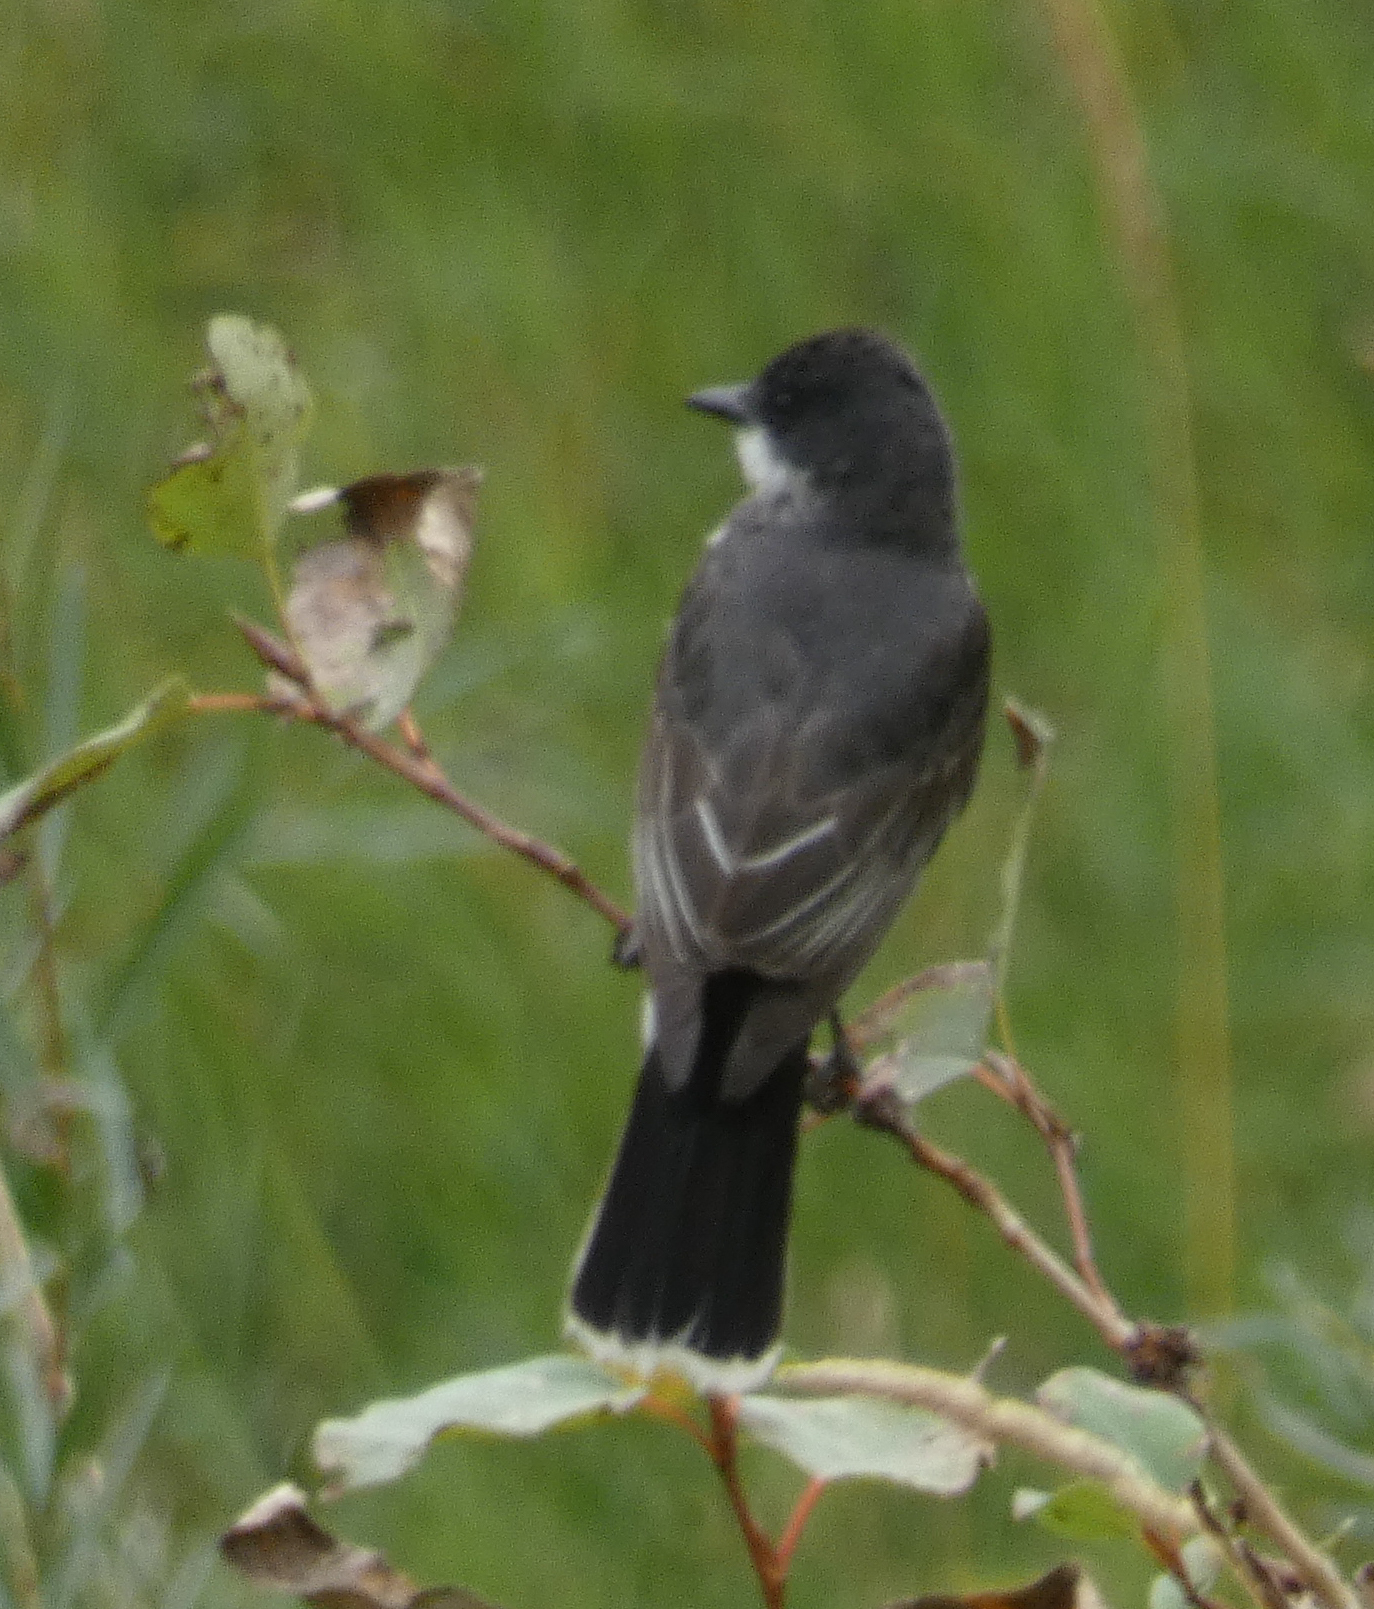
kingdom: Animalia
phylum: Chordata
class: Aves
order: Passeriformes
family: Tyrannidae
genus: Tyrannus
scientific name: Tyrannus tyrannus
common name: Eastern kingbird
